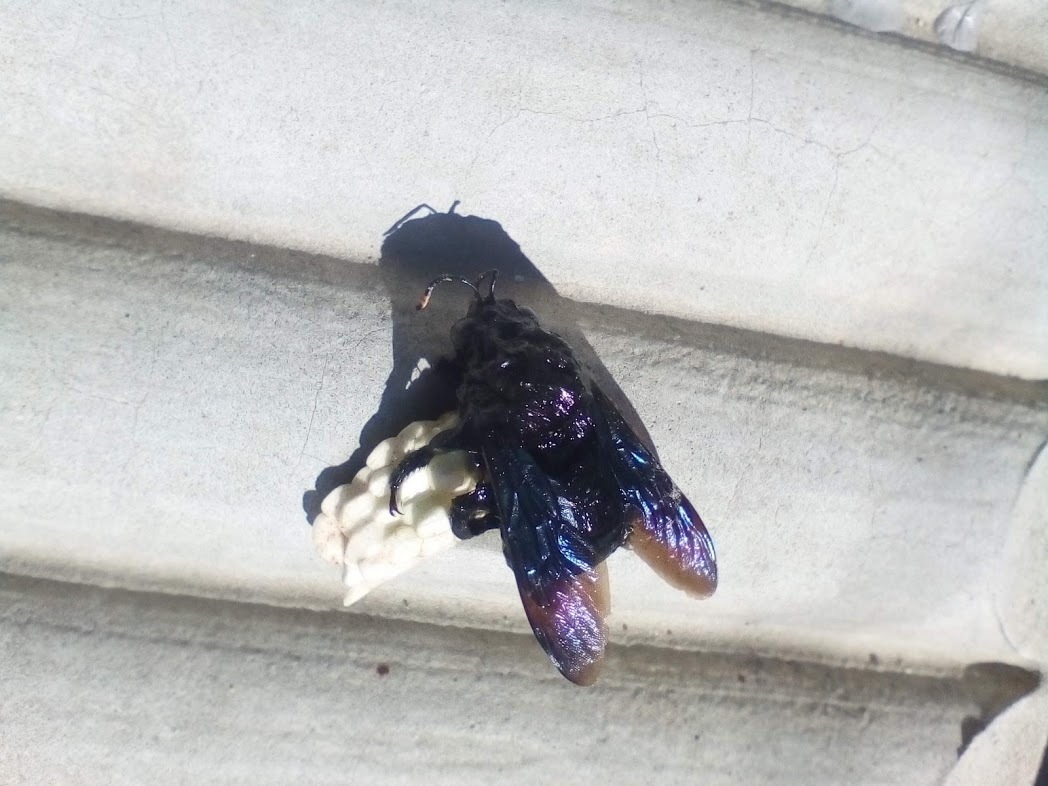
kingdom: Animalia
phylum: Arthropoda
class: Insecta
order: Hymenoptera
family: Apidae
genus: Xylocopa
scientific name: Xylocopa violacea
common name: Violet carpenter bee
